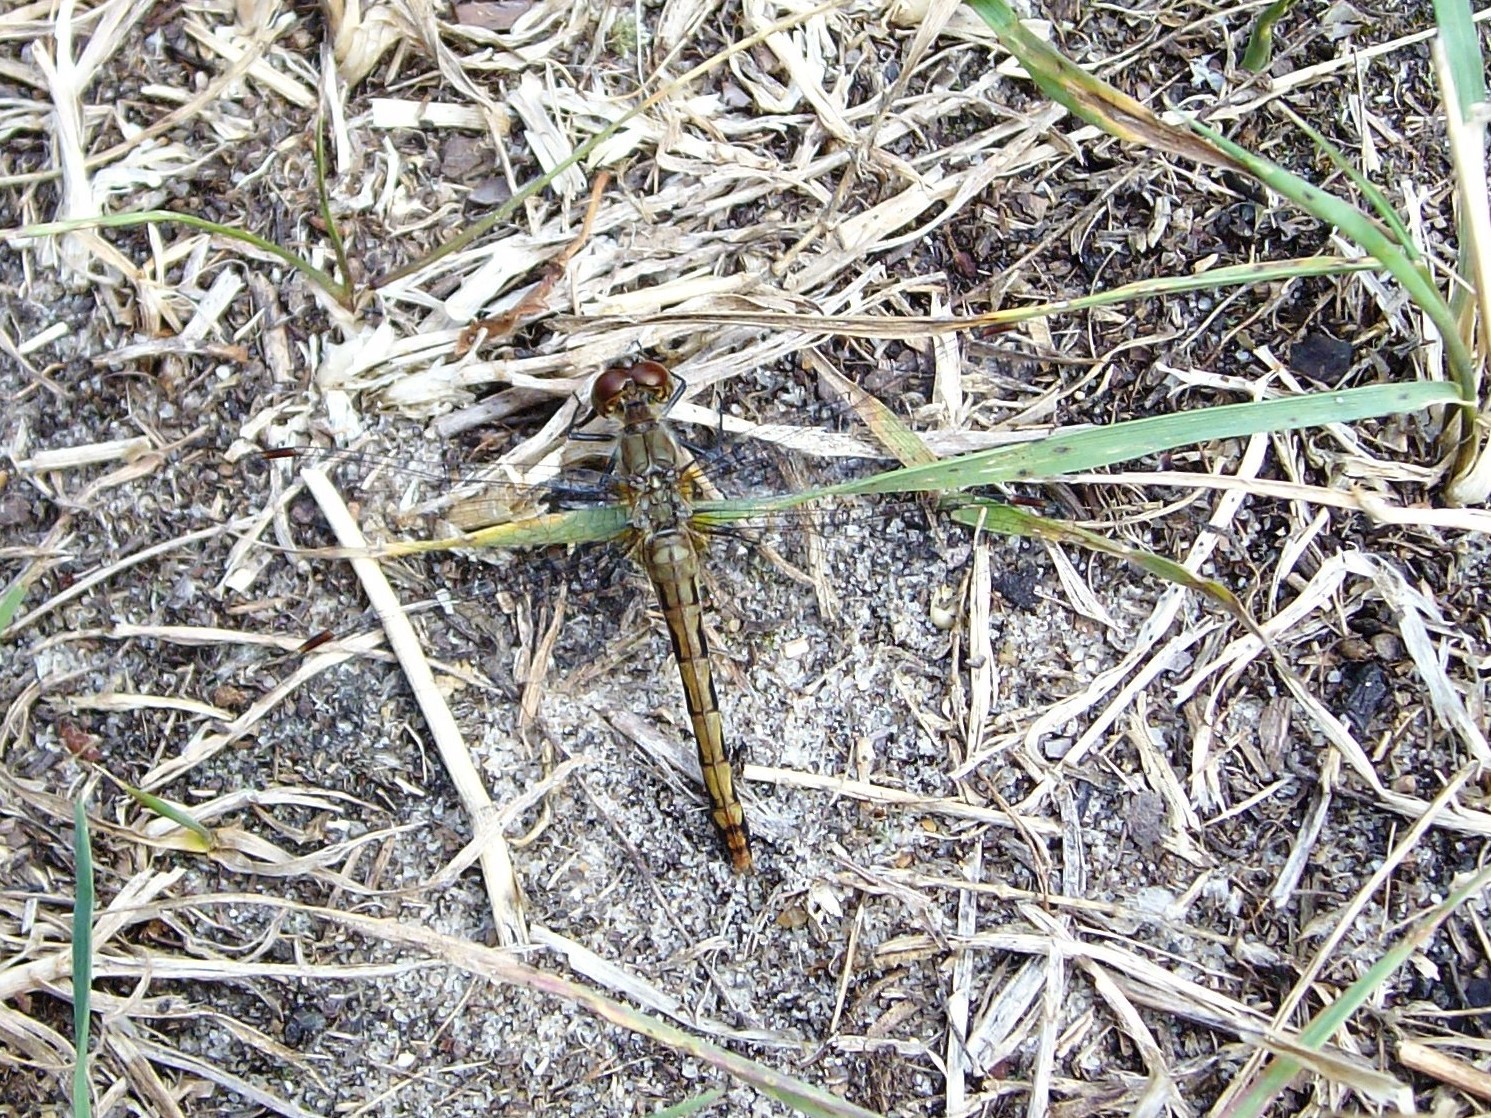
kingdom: Animalia
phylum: Arthropoda
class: Insecta
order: Odonata
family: Libellulidae
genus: Sympetrum
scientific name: Sympetrum danae
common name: Black darter
